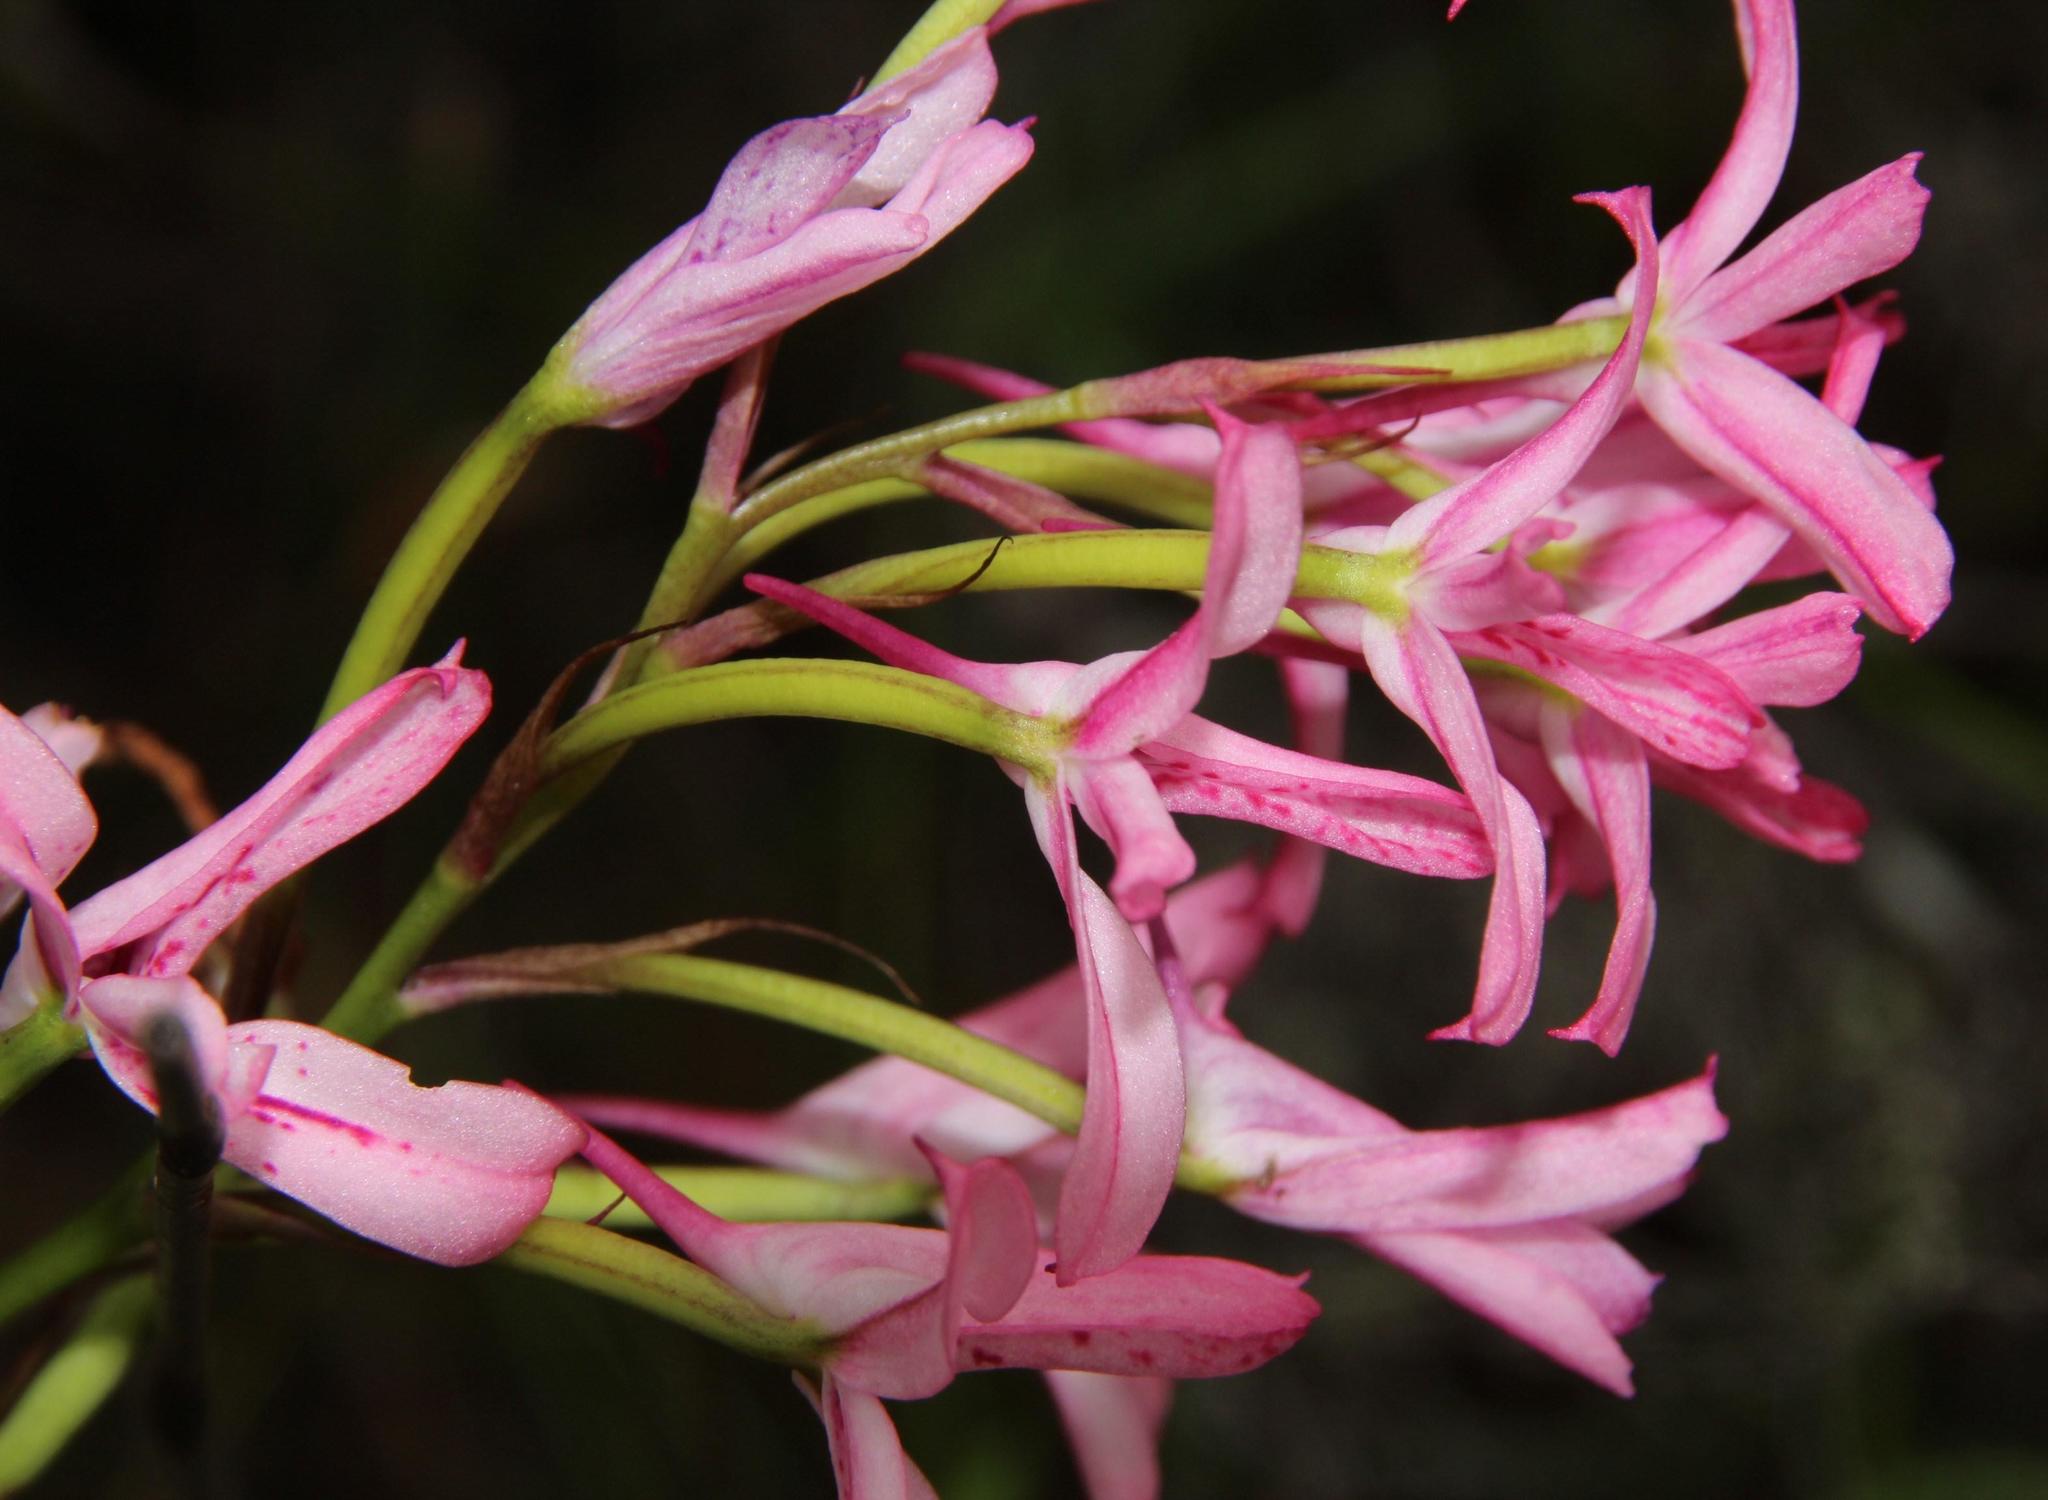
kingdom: Plantae
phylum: Tracheophyta
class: Liliopsida
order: Asparagales
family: Orchidaceae
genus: Disa
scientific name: Disa gladioliflora
